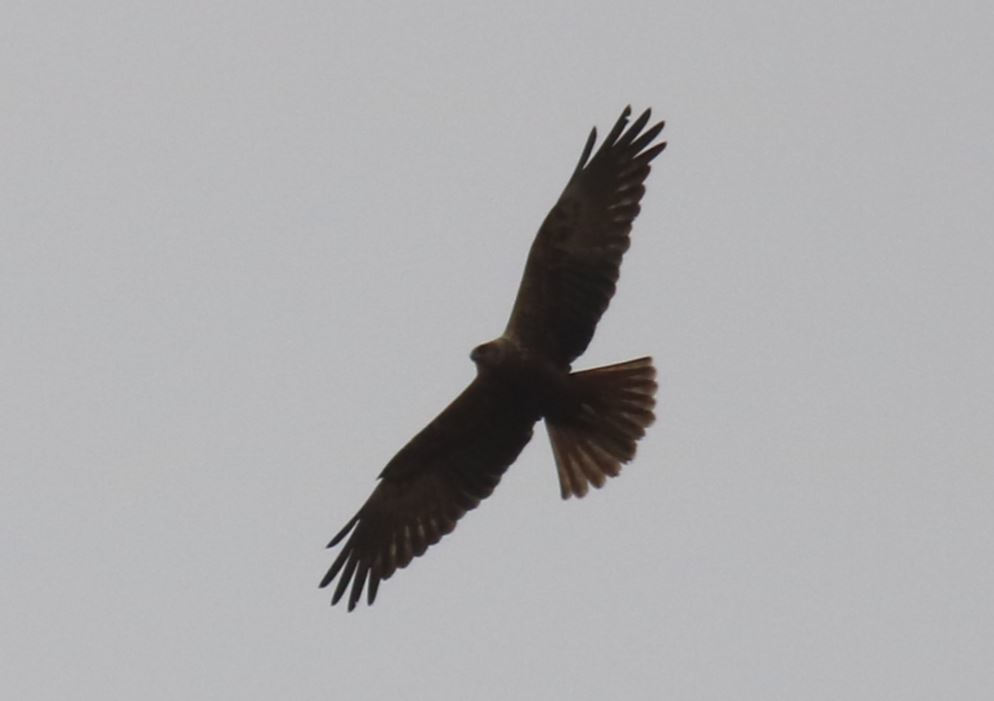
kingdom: Animalia
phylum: Chordata
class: Aves
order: Accipitriformes
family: Accipitridae
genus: Circus
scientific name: Circus aeruginosus
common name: Western marsh harrier
